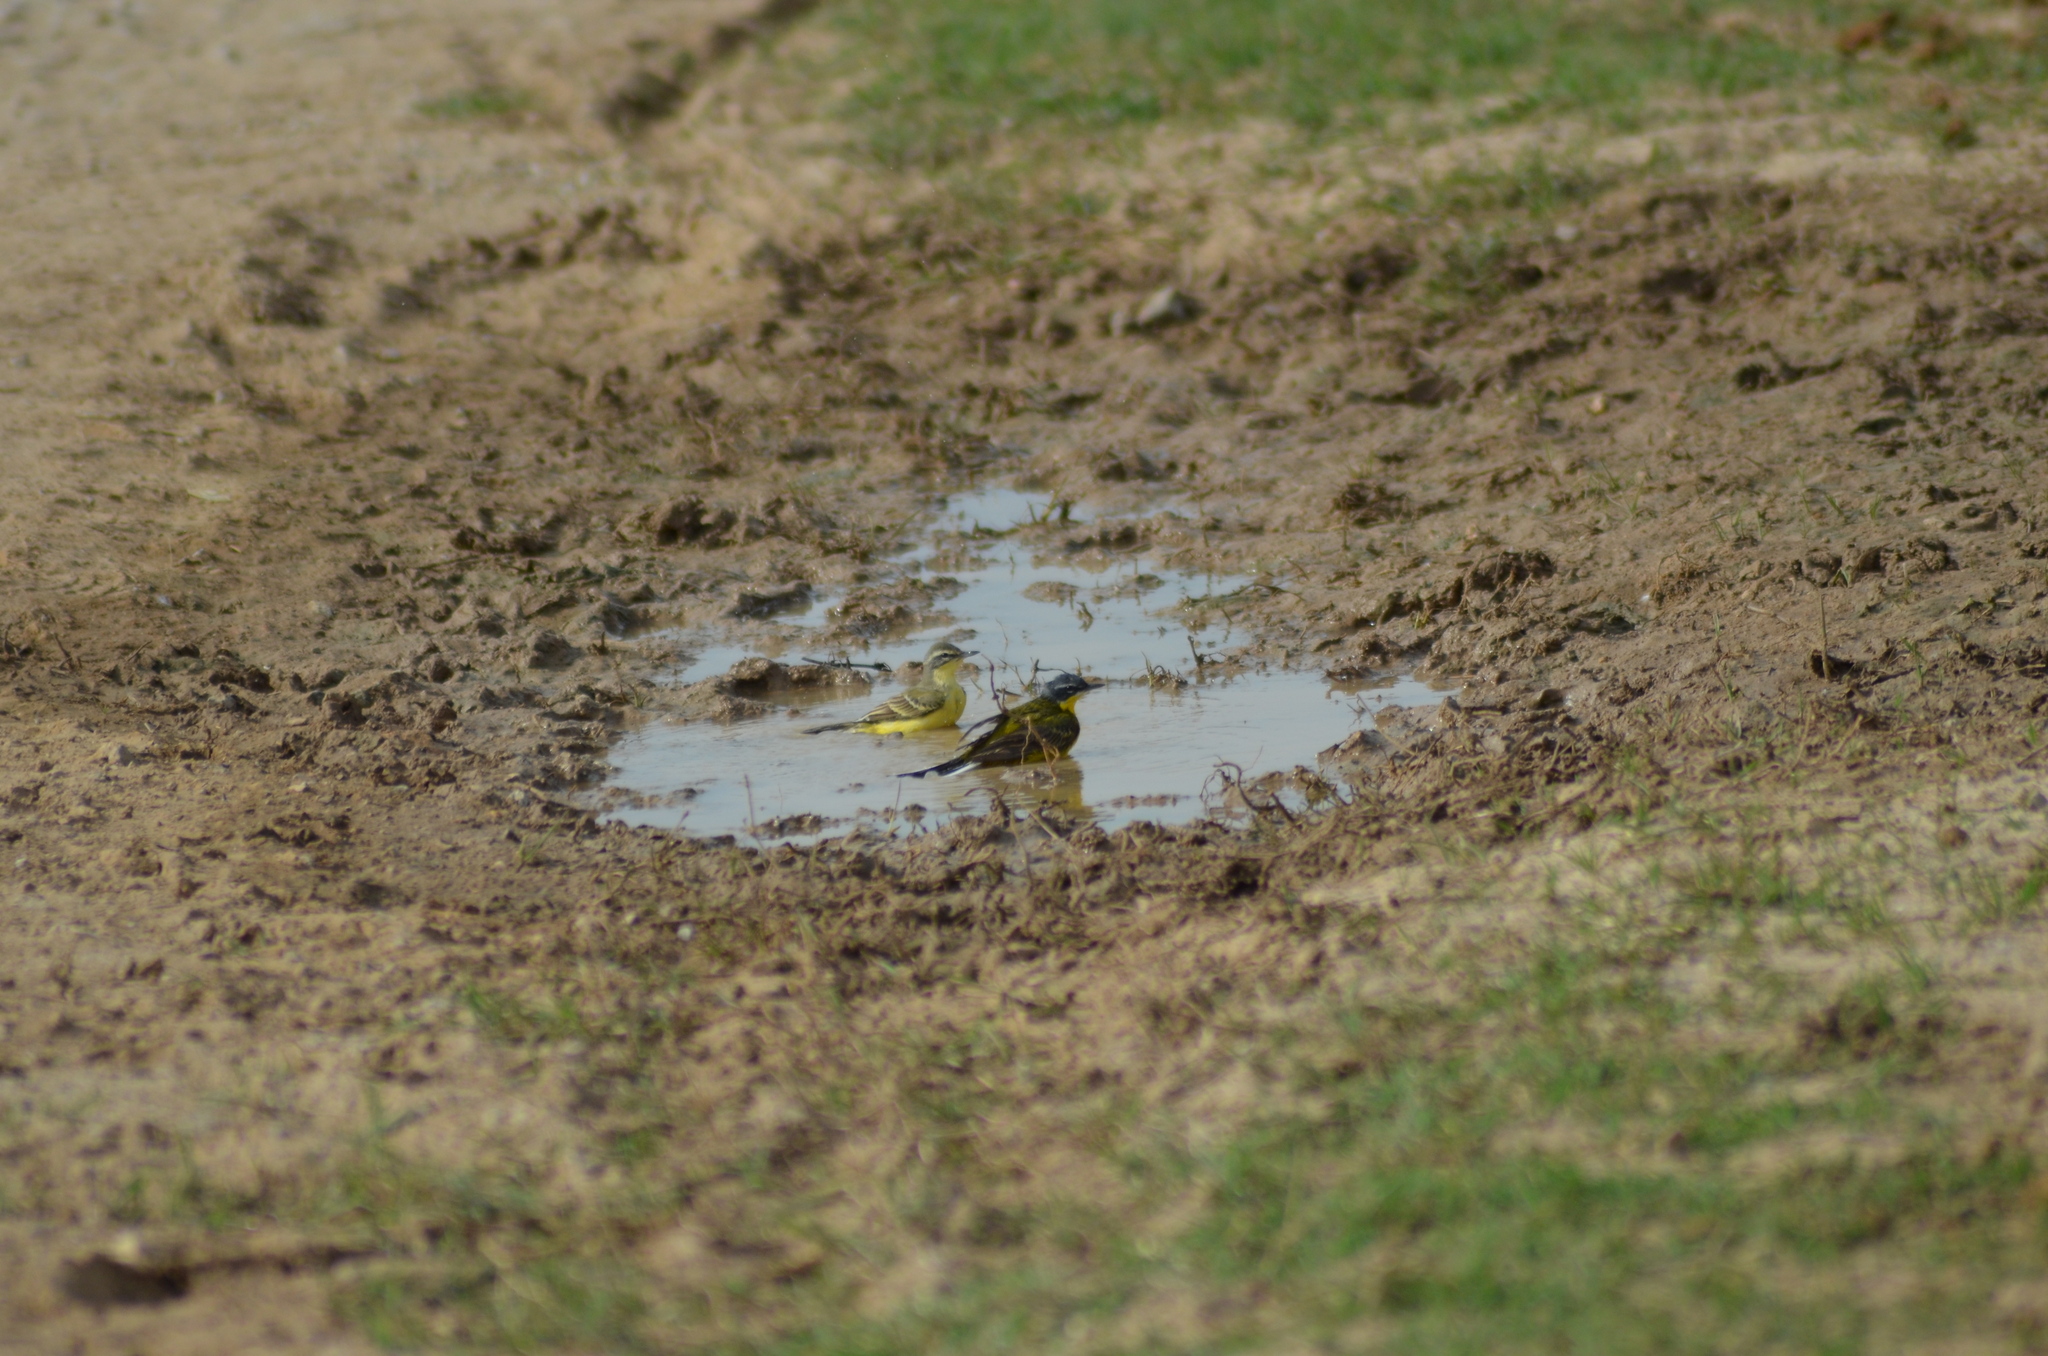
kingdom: Animalia
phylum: Chordata
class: Aves
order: Passeriformes
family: Motacillidae
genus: Motacilla
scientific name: Motacilla flava
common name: Western yellow wagtail
